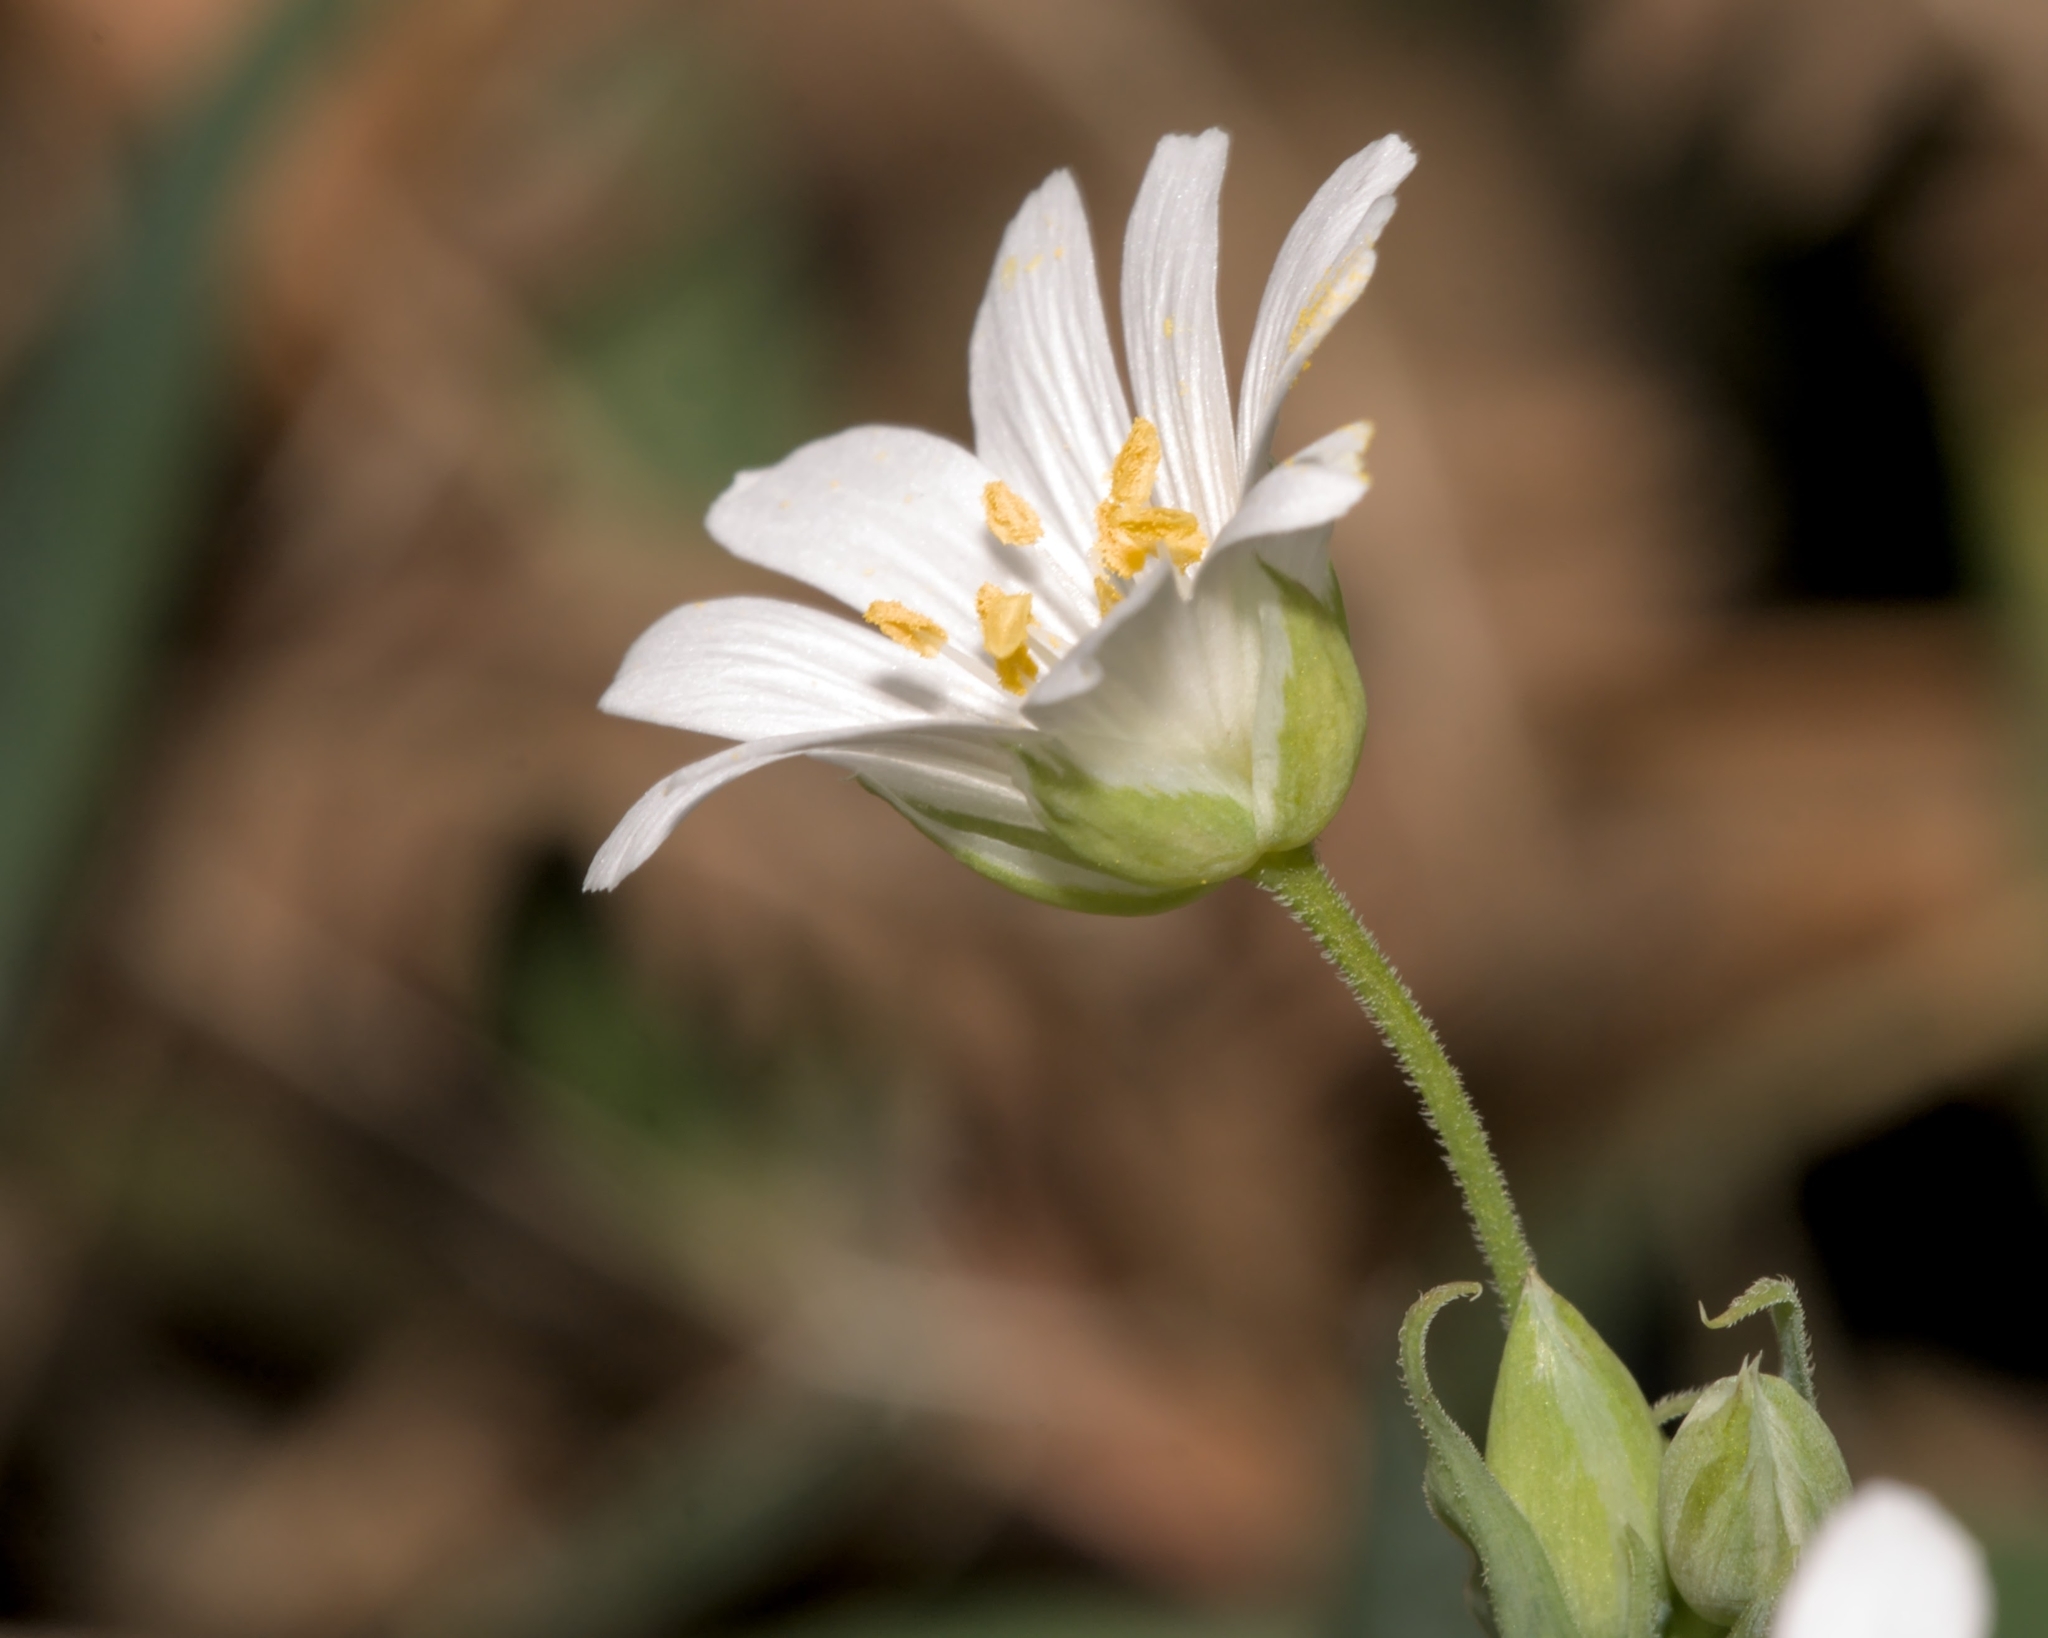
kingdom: Plantae
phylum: Tracheophyta
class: Magnoliopsida
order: Caryophyllales
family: Caryophyllaceae
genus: Rabelera
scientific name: Rabelera holostea
